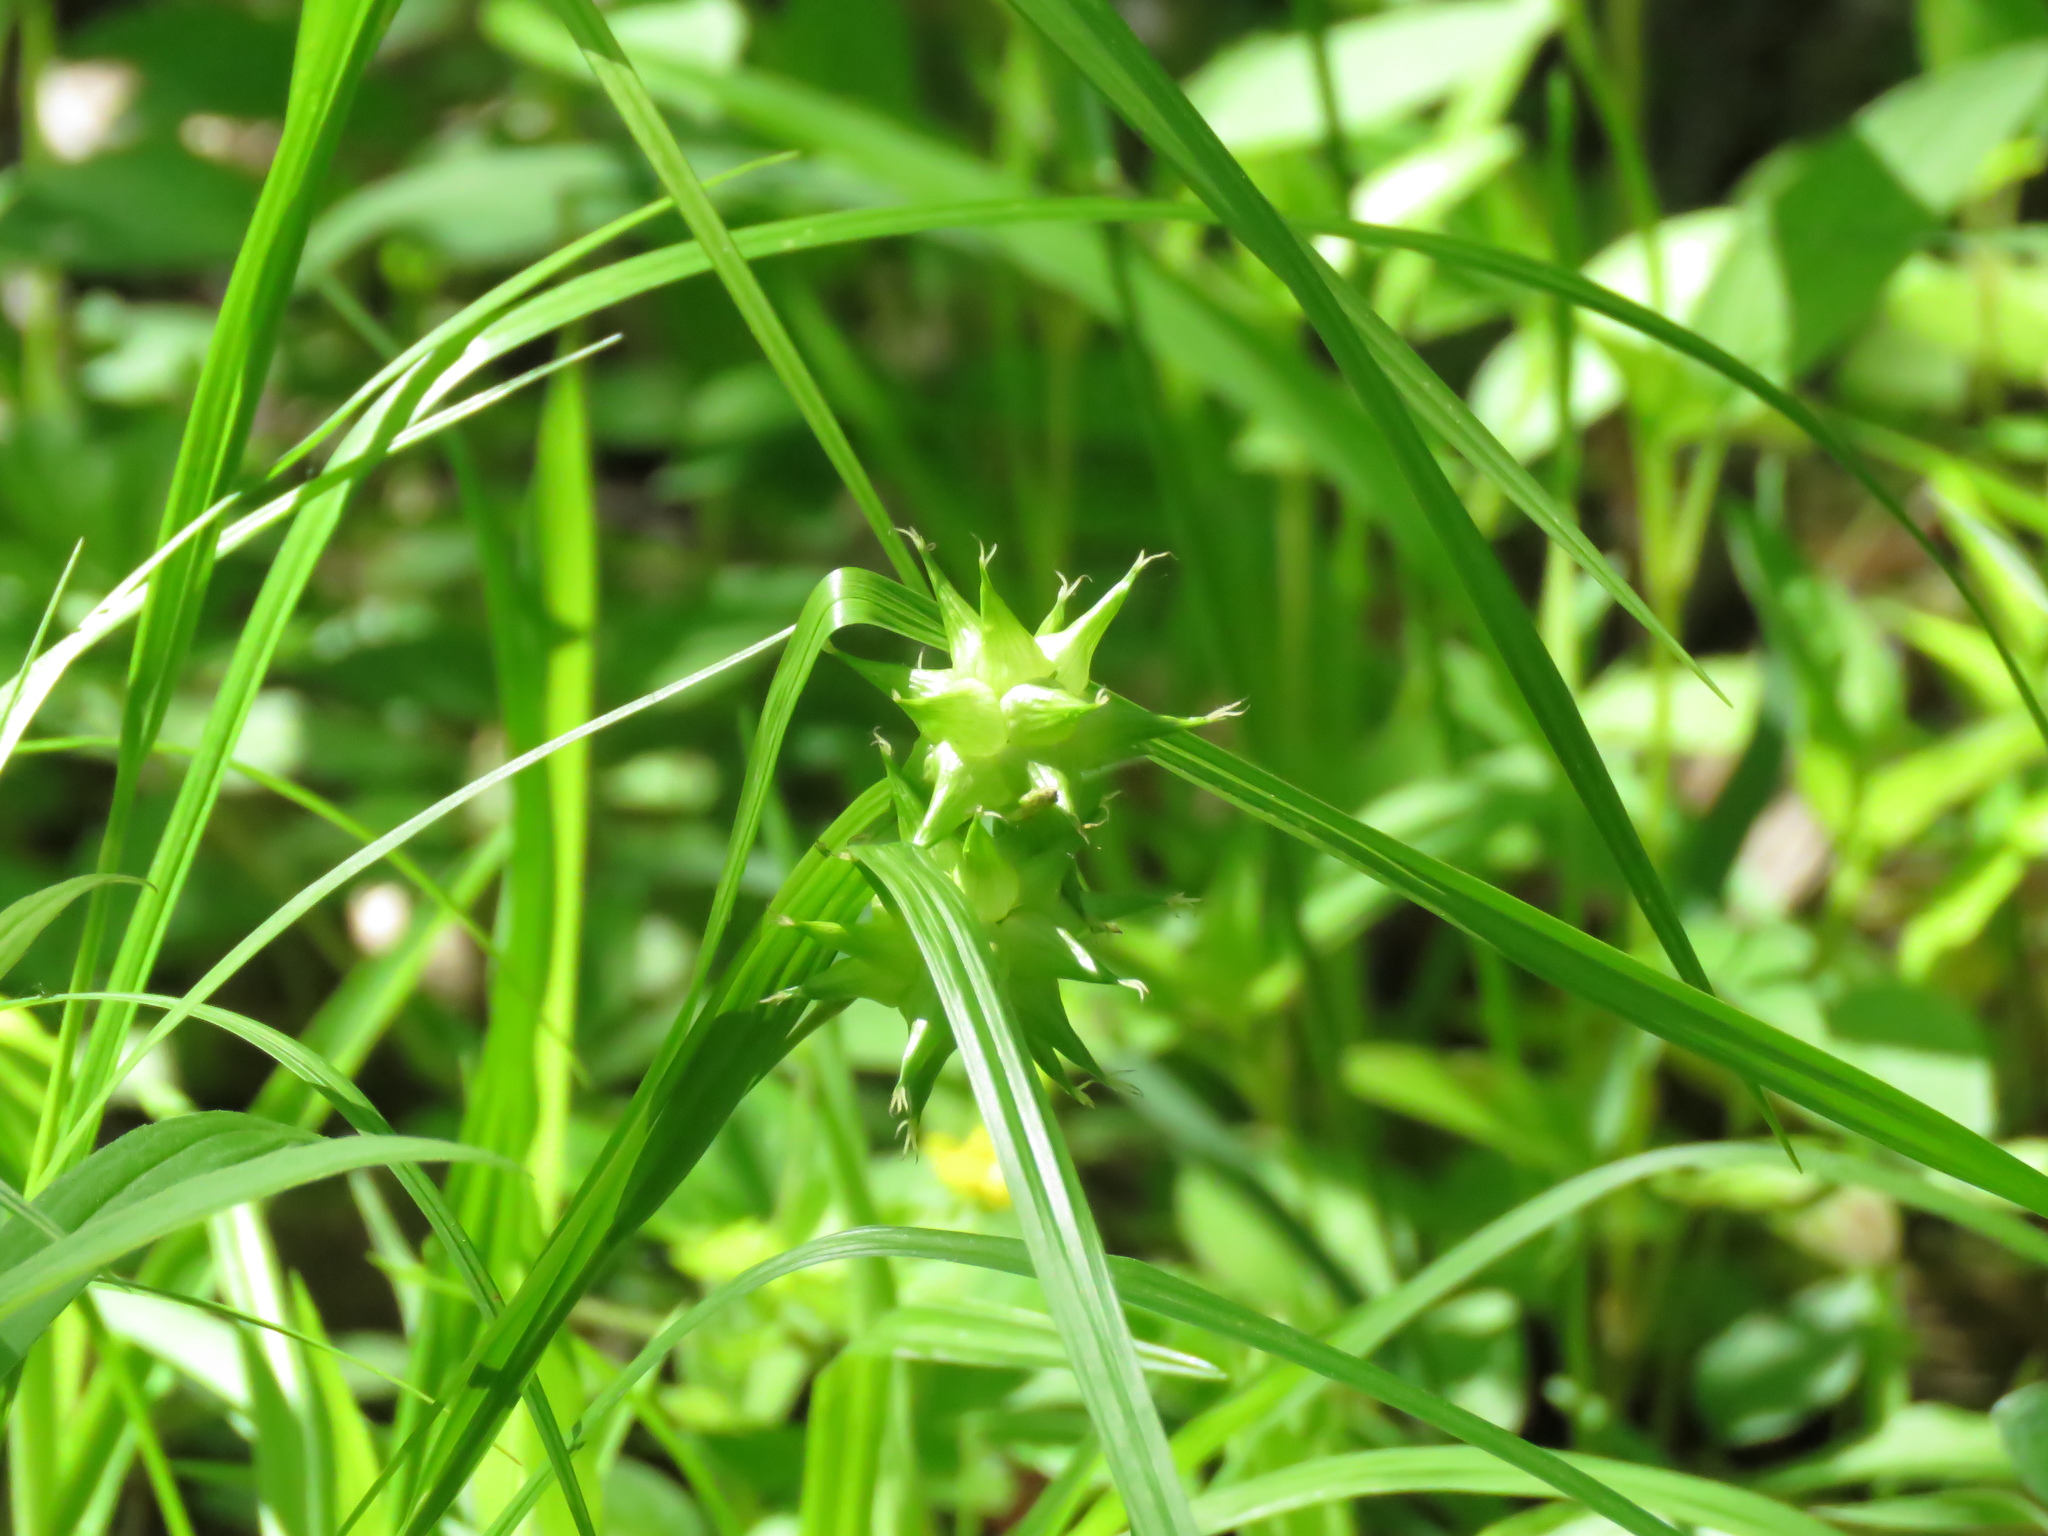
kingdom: Plantae
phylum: Tracheophyta
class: Liliopsida
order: Poales
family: Cyperaceae
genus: Carex
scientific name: Carex grayi
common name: Asa gray's sedge
